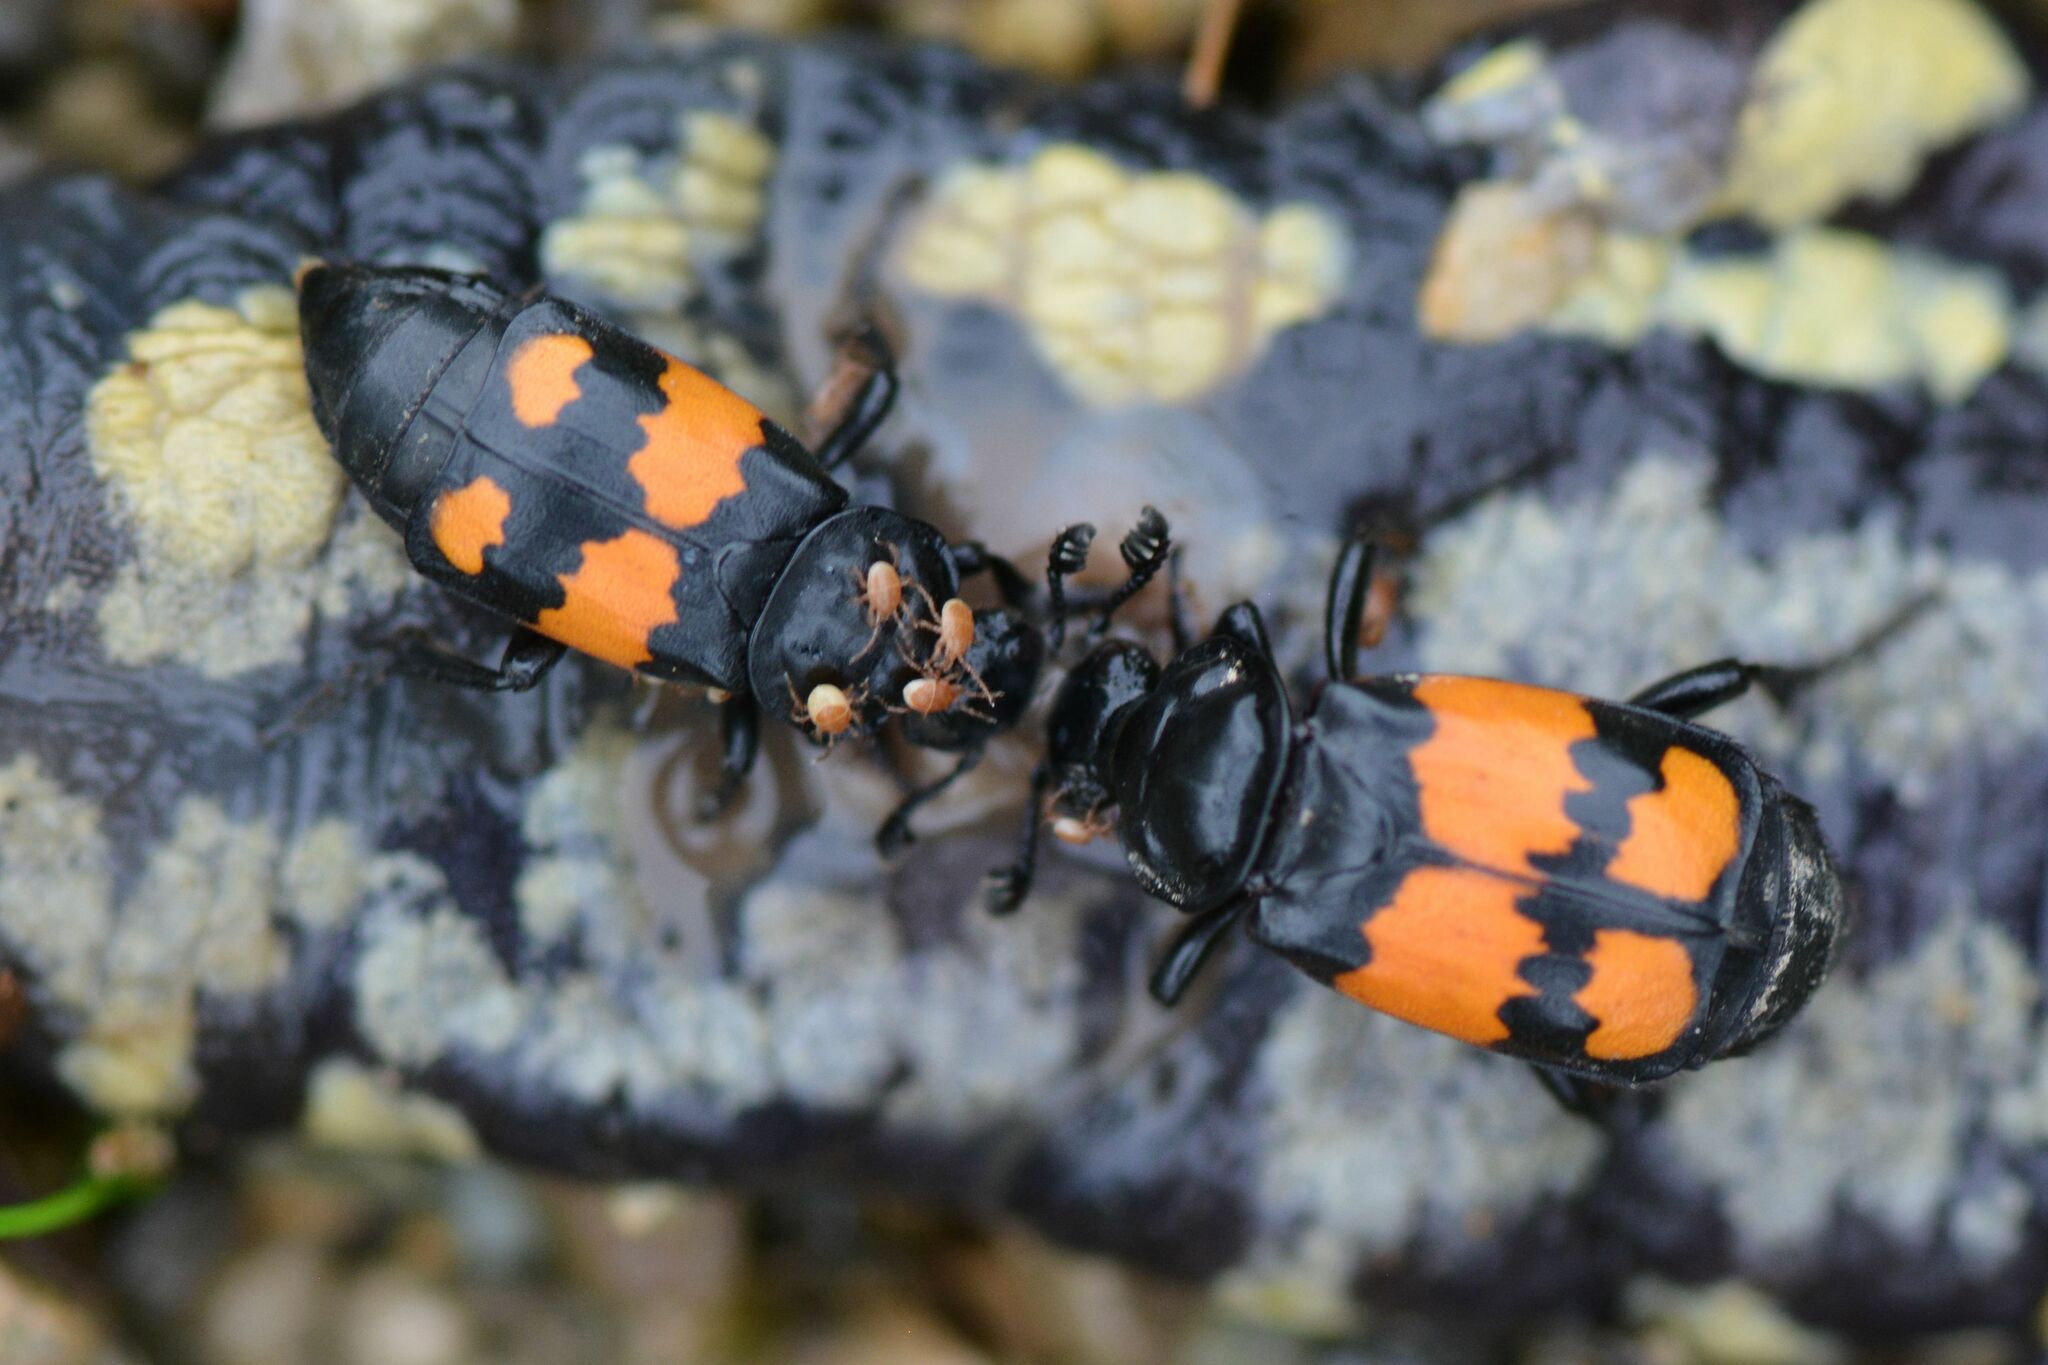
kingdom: Animalia
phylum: Arthropoda
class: Insecta
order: Coleoptera
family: Staphylinidae
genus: Nicrophorus
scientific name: Nicrophorus vespilloides
